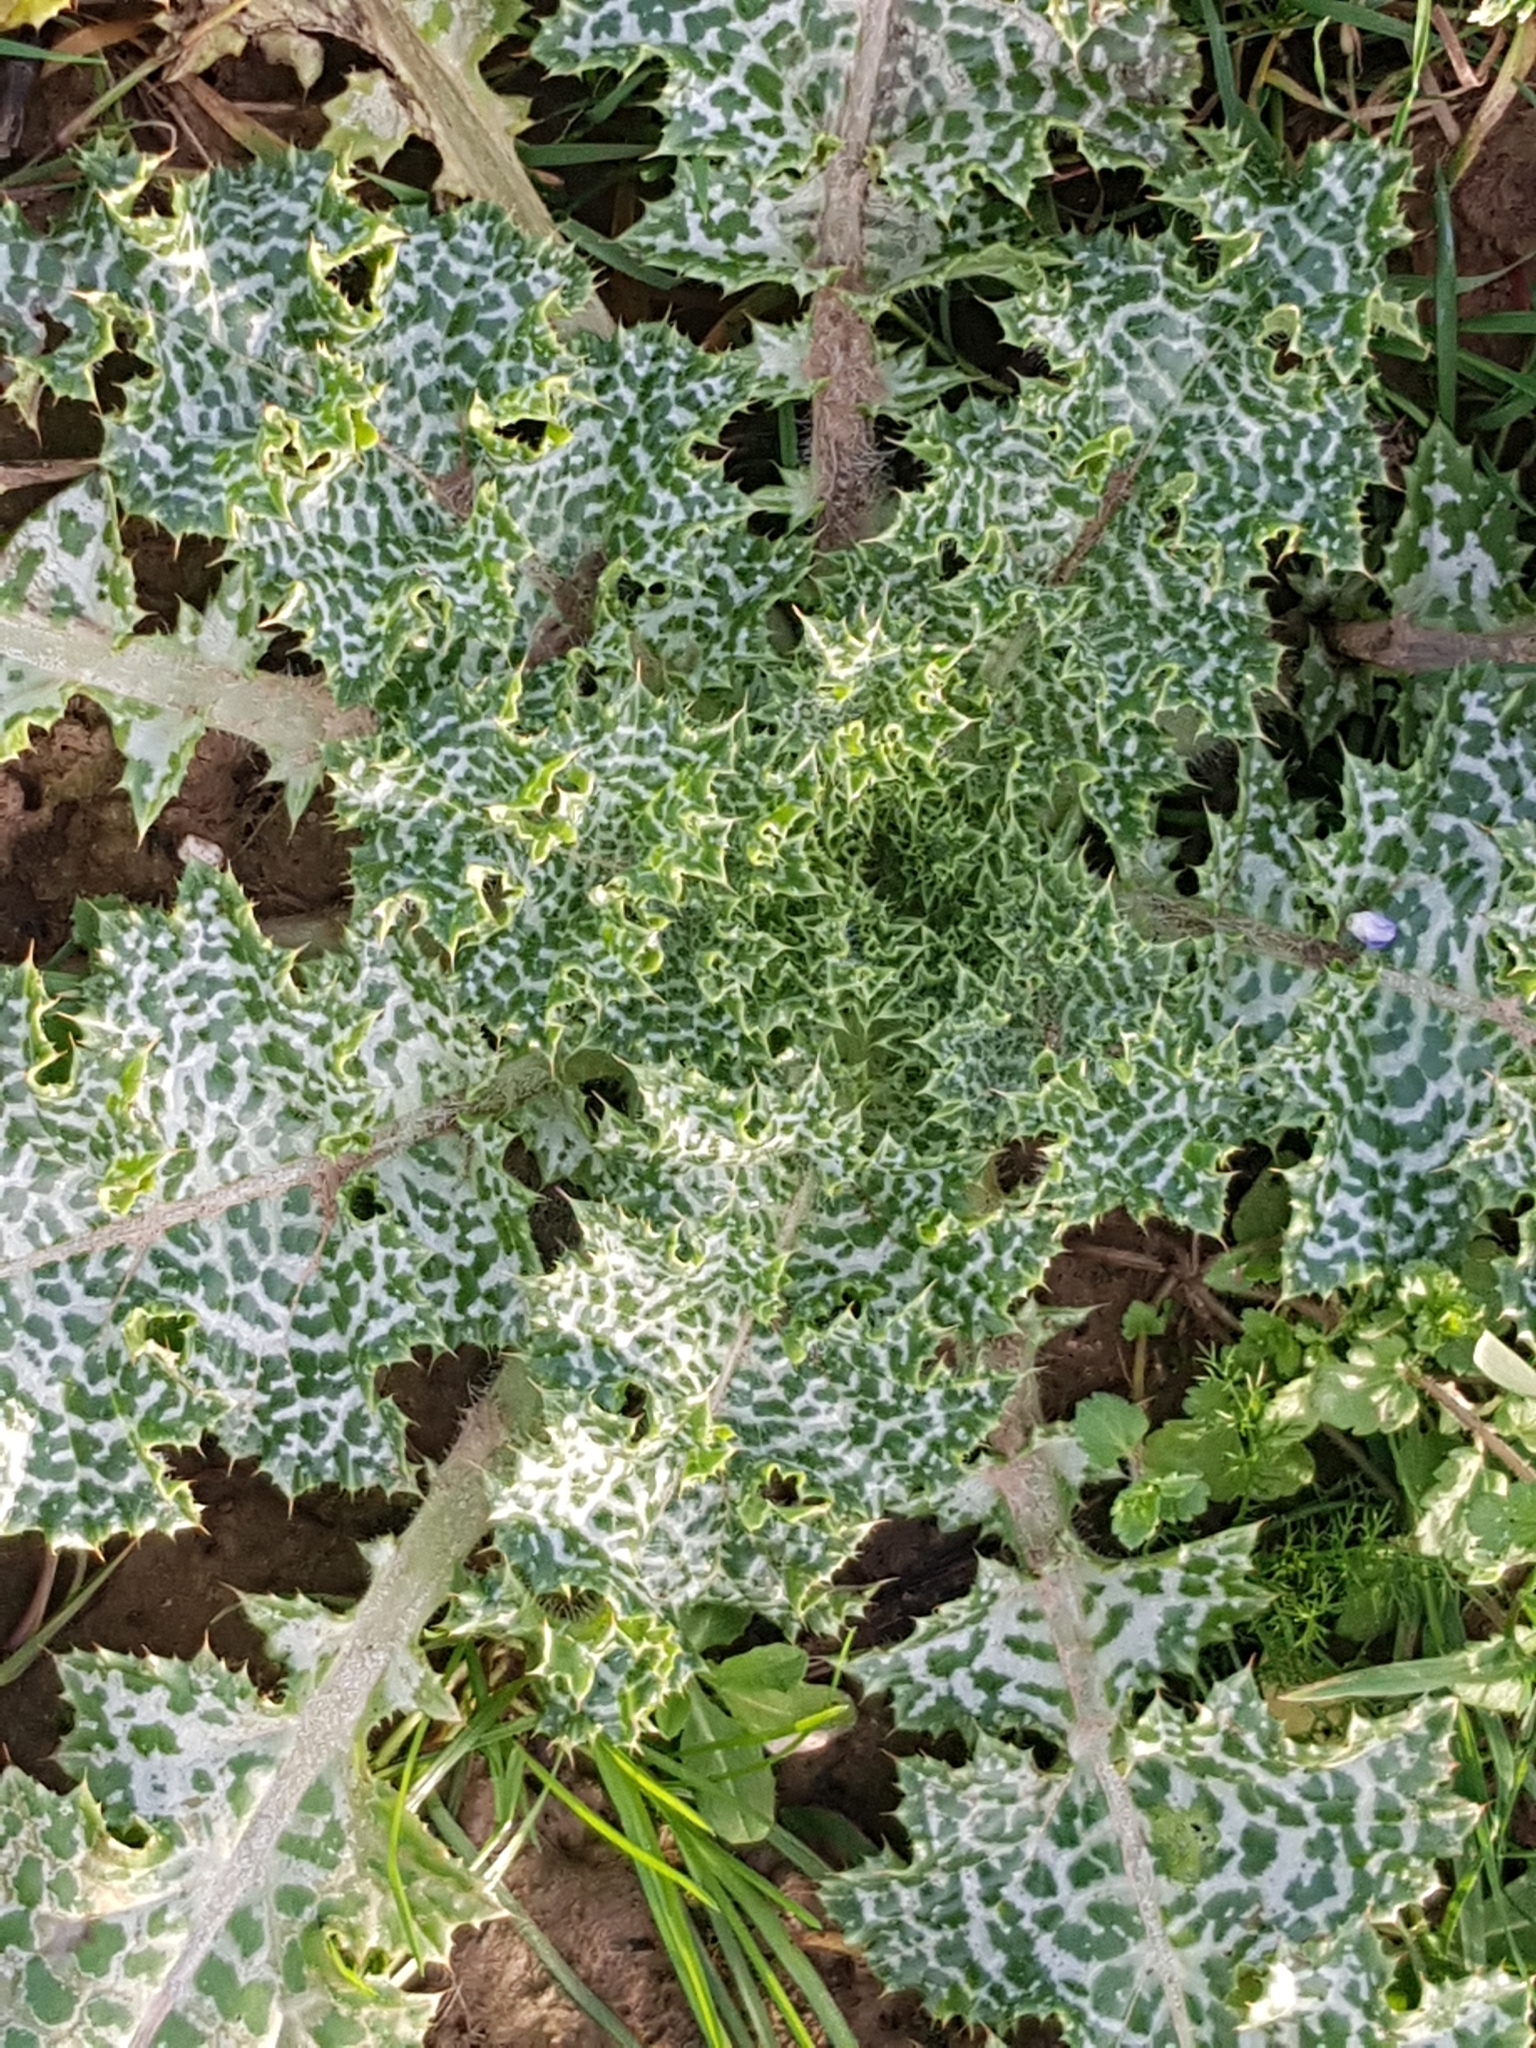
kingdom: Plantae
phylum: Tracheophyta
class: Magnoliopsida
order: Asterales
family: Asteraceae
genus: Silybum
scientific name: Silybum marianum
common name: Milk thistle
